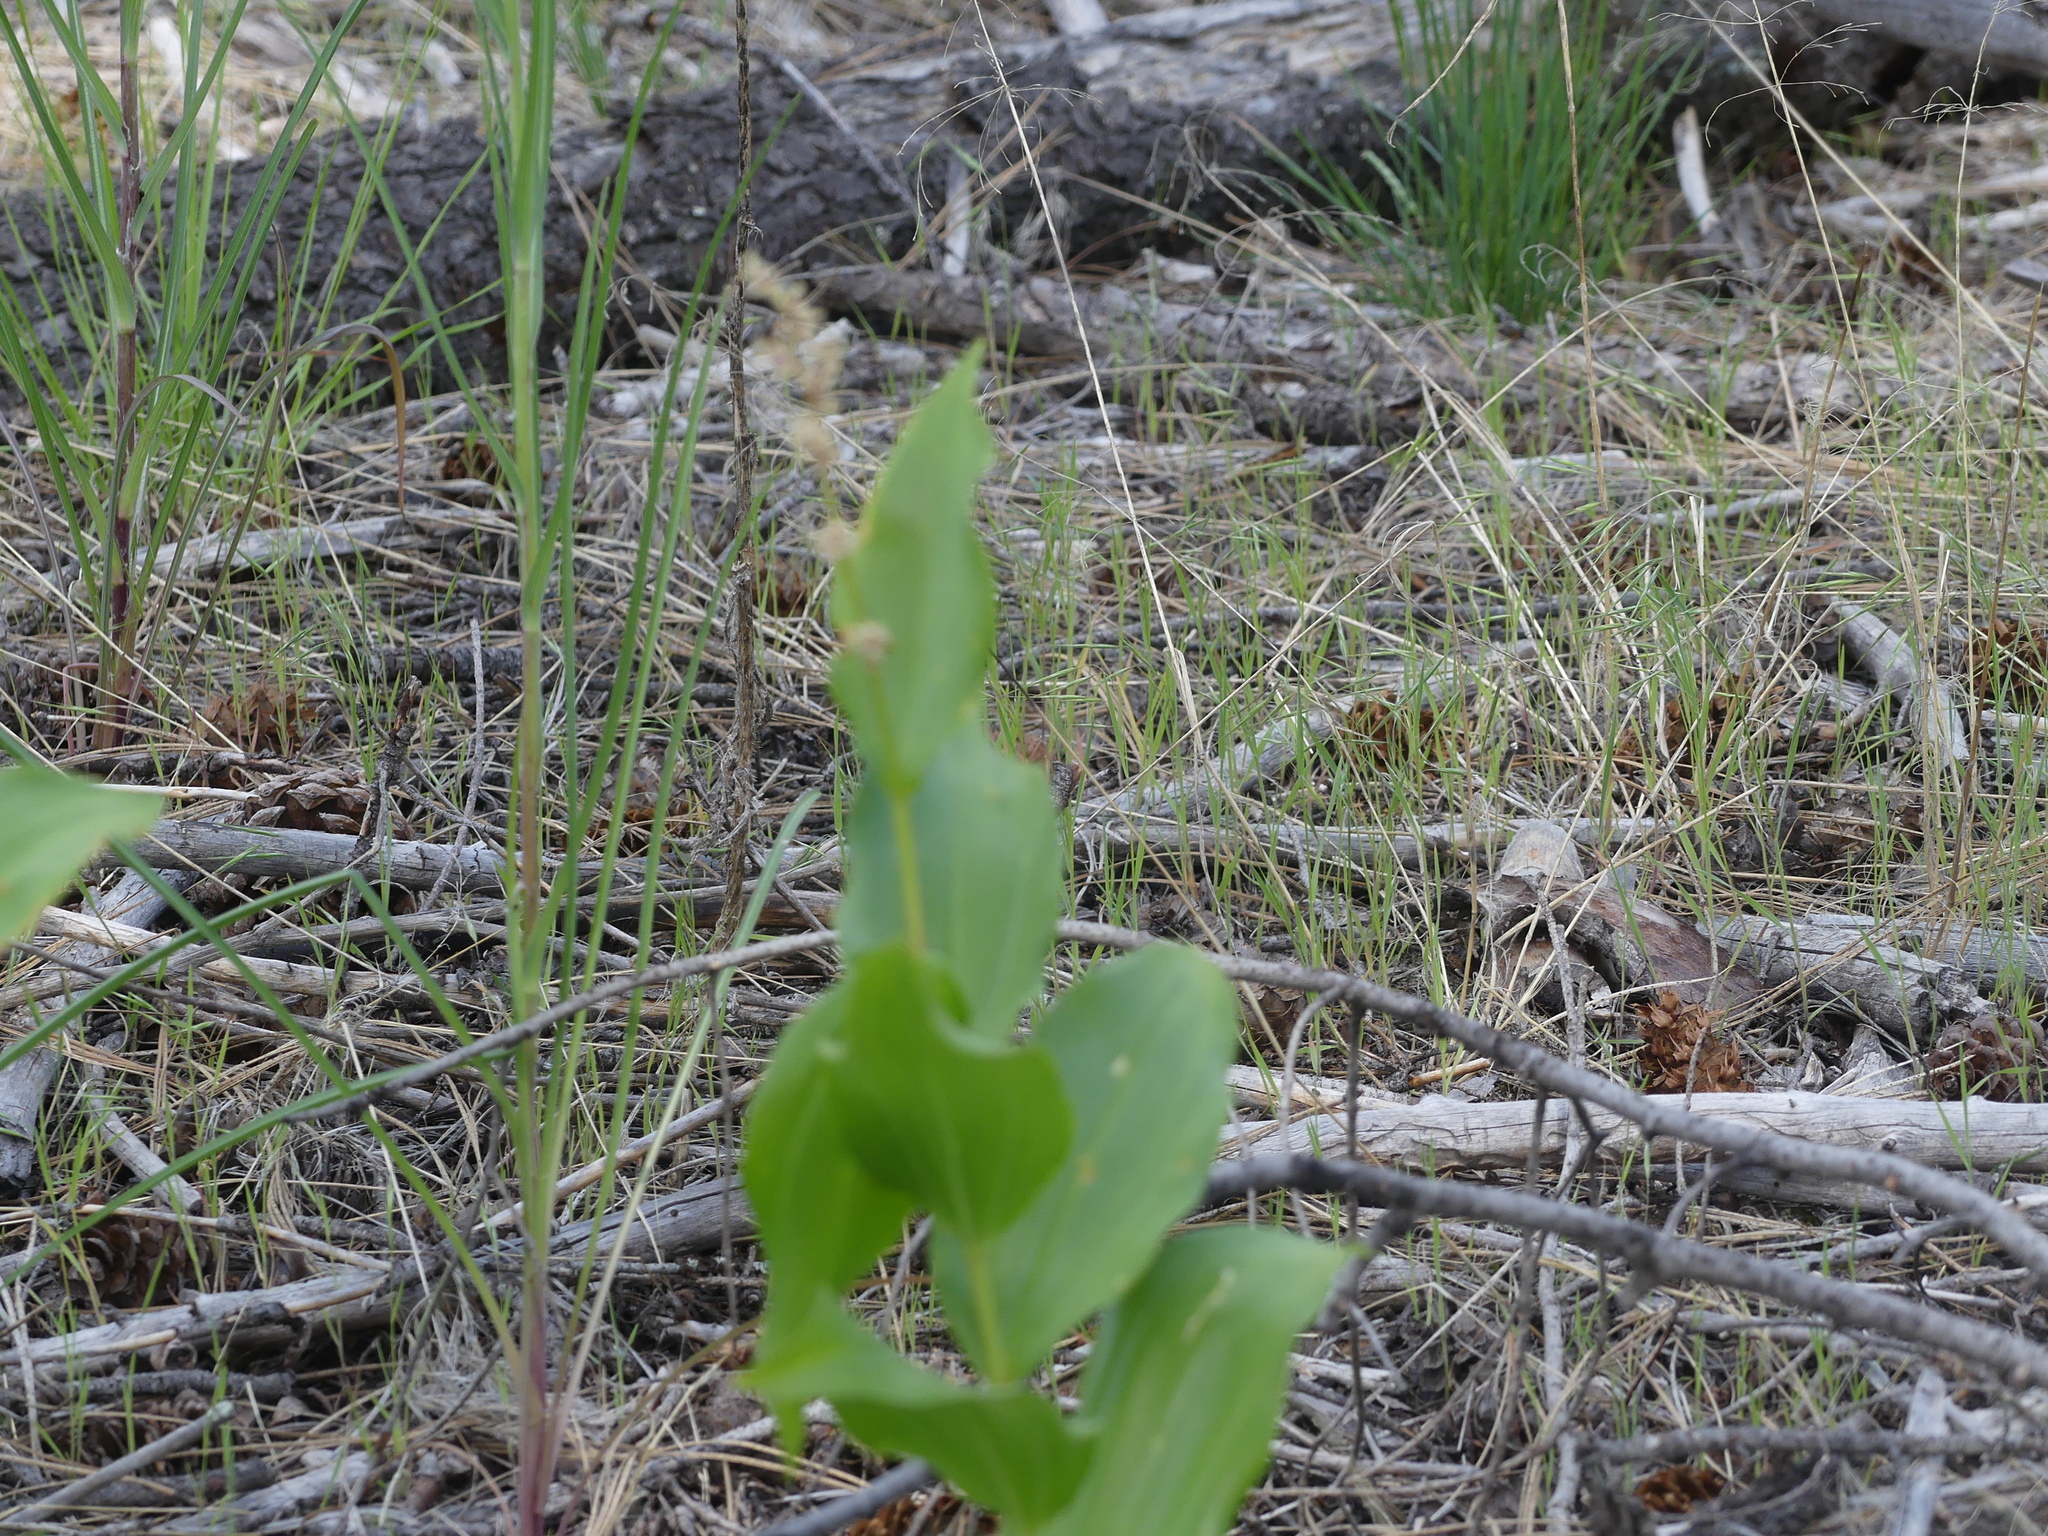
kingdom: Plantae
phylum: Tracheophyta
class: Liliopsida
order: Asparagales
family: Asparagaceae
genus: Maianthemum
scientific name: Maianthemum racemosum
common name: False spikenard
